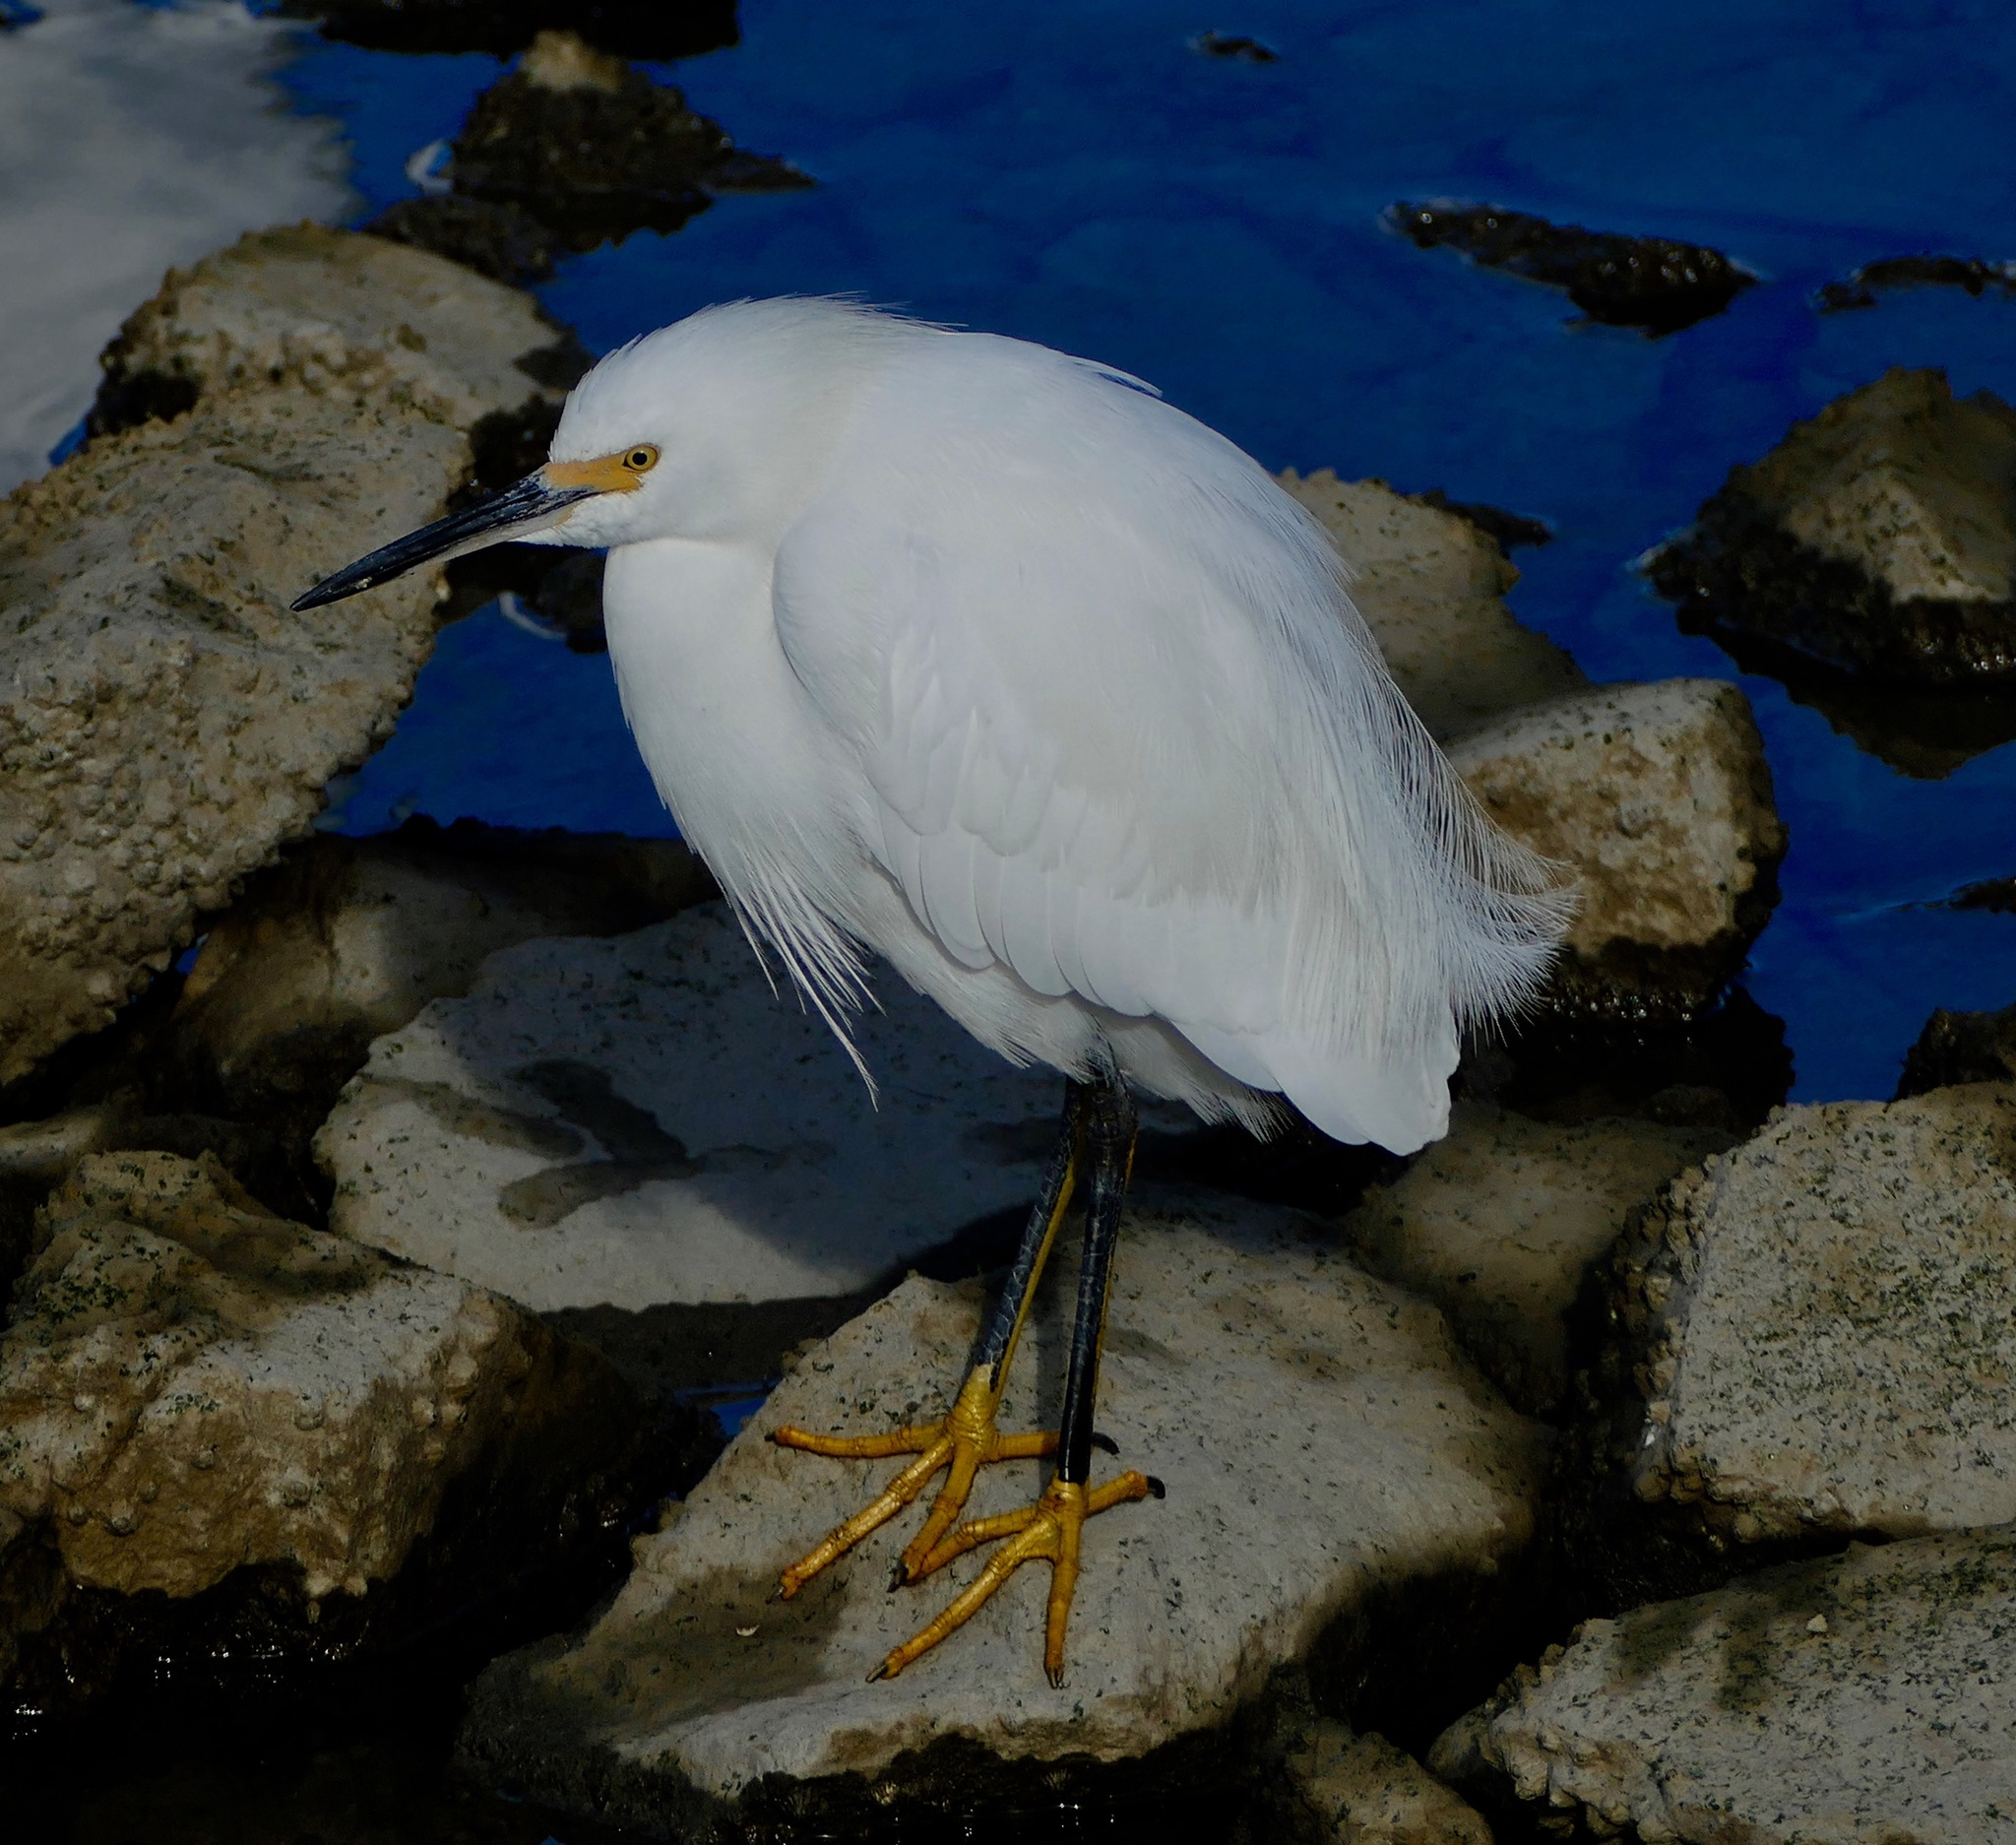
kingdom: Animalia
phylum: Chordata
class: Aves
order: Pelecaniformes
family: Ardeidae
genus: Egretta
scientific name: Egretta thula
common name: Snowy egret
